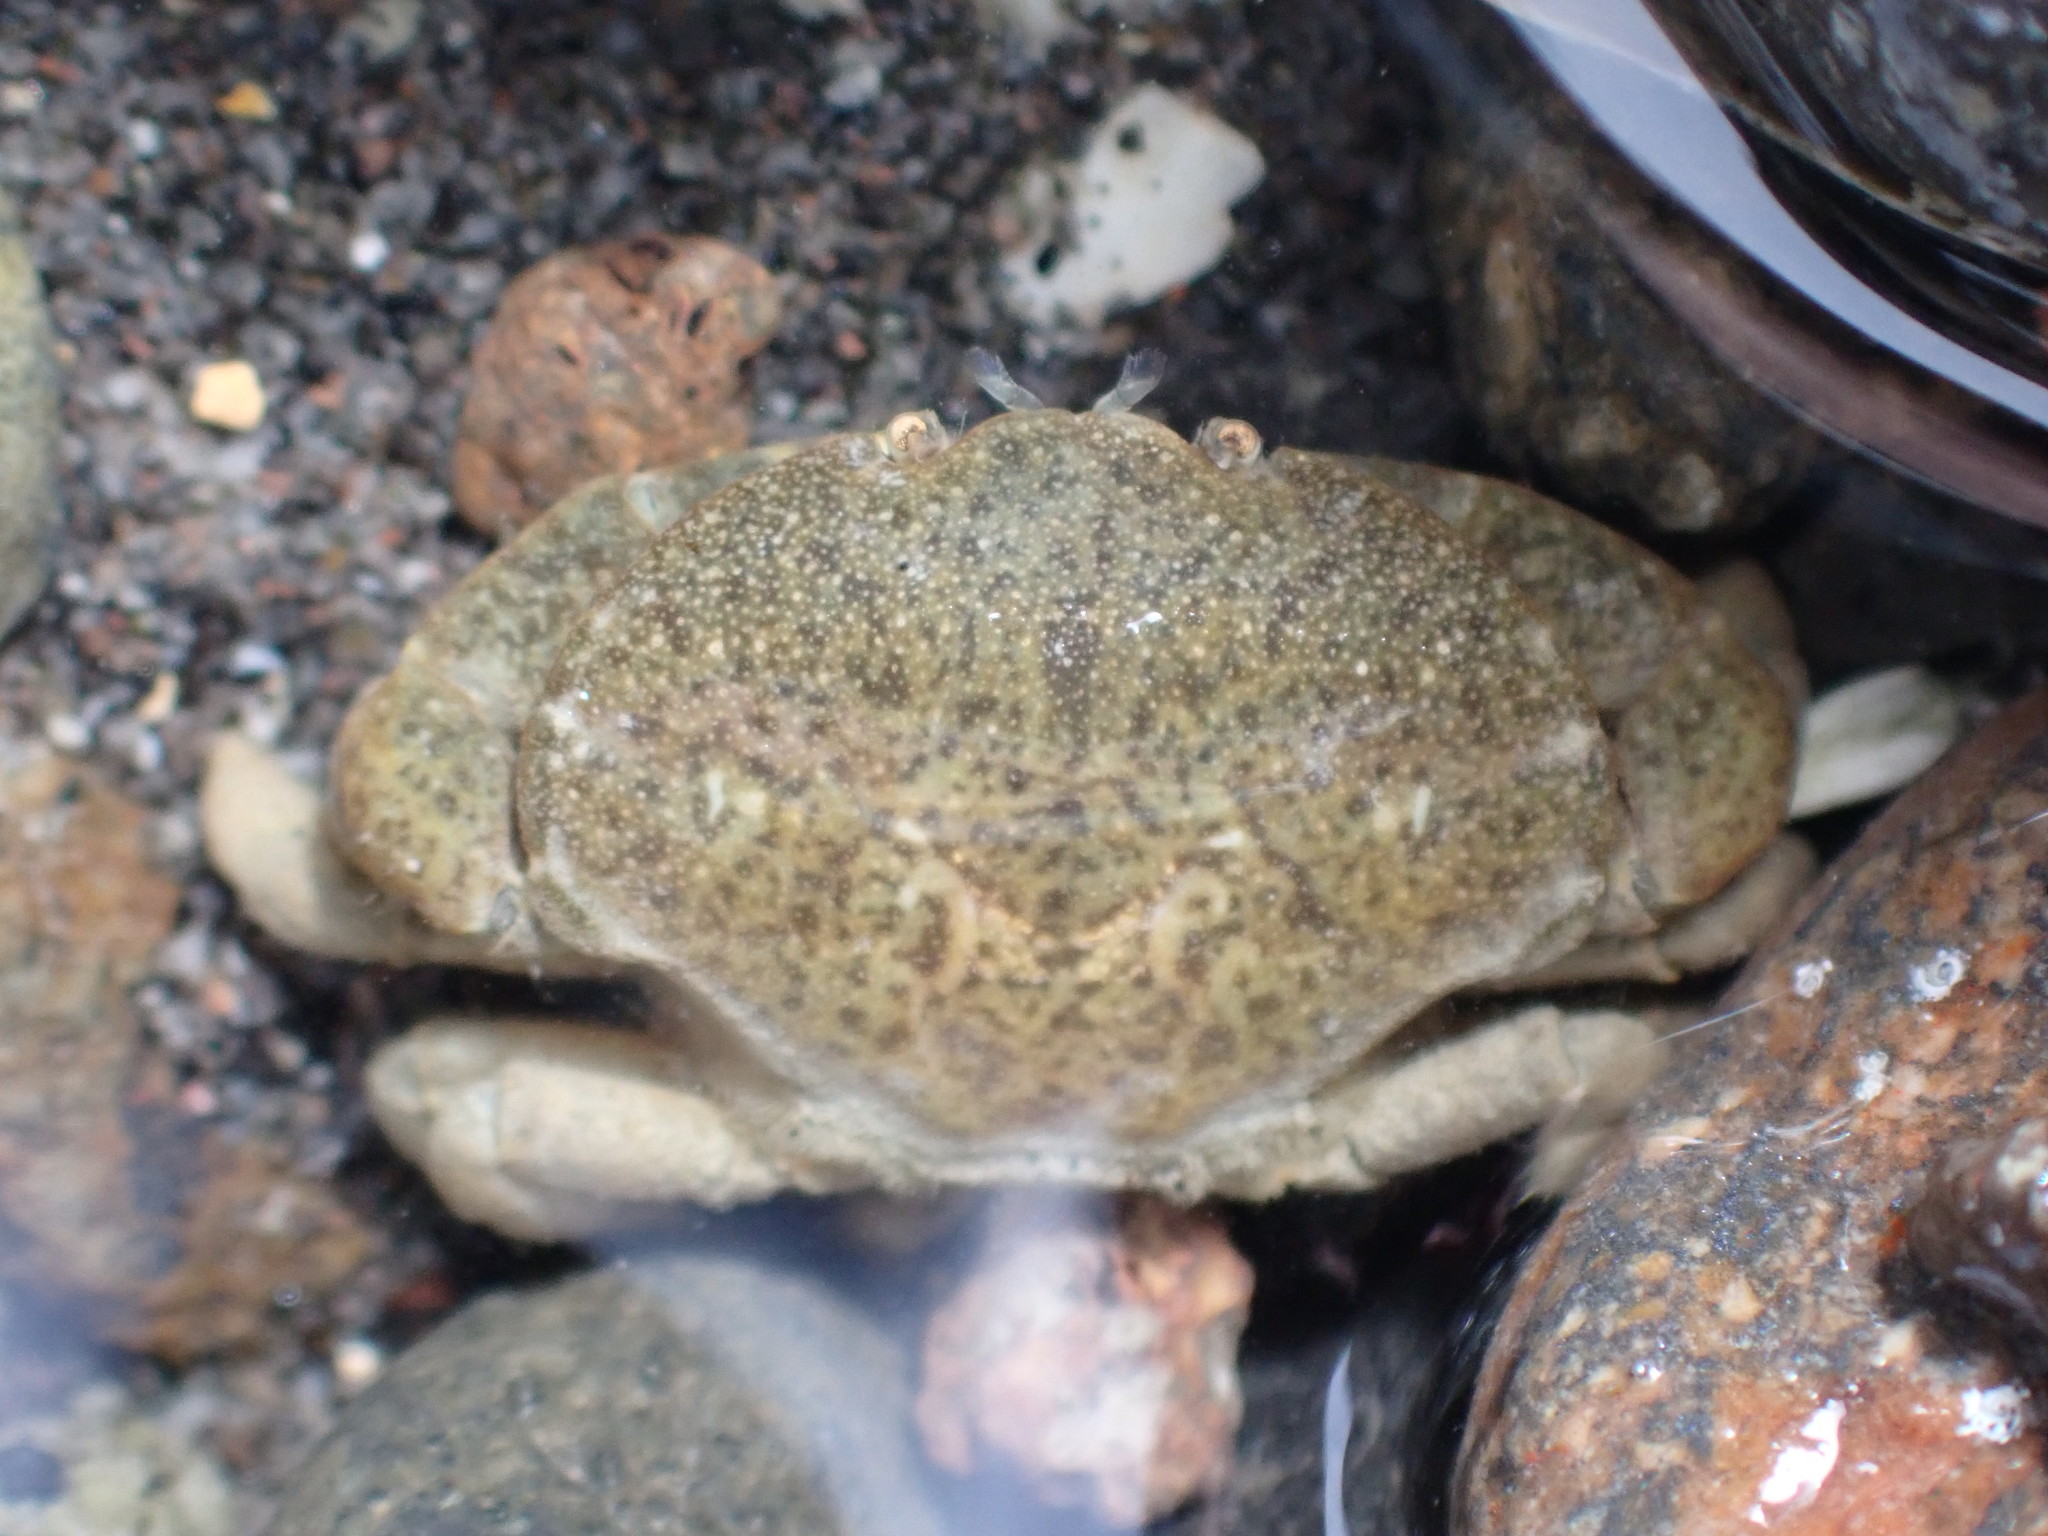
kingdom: Animalia
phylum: Arthropoda
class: Malacostraca
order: Decapoda
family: Heteroziidae
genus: Heterozius
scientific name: Heterozius rotundifrons
